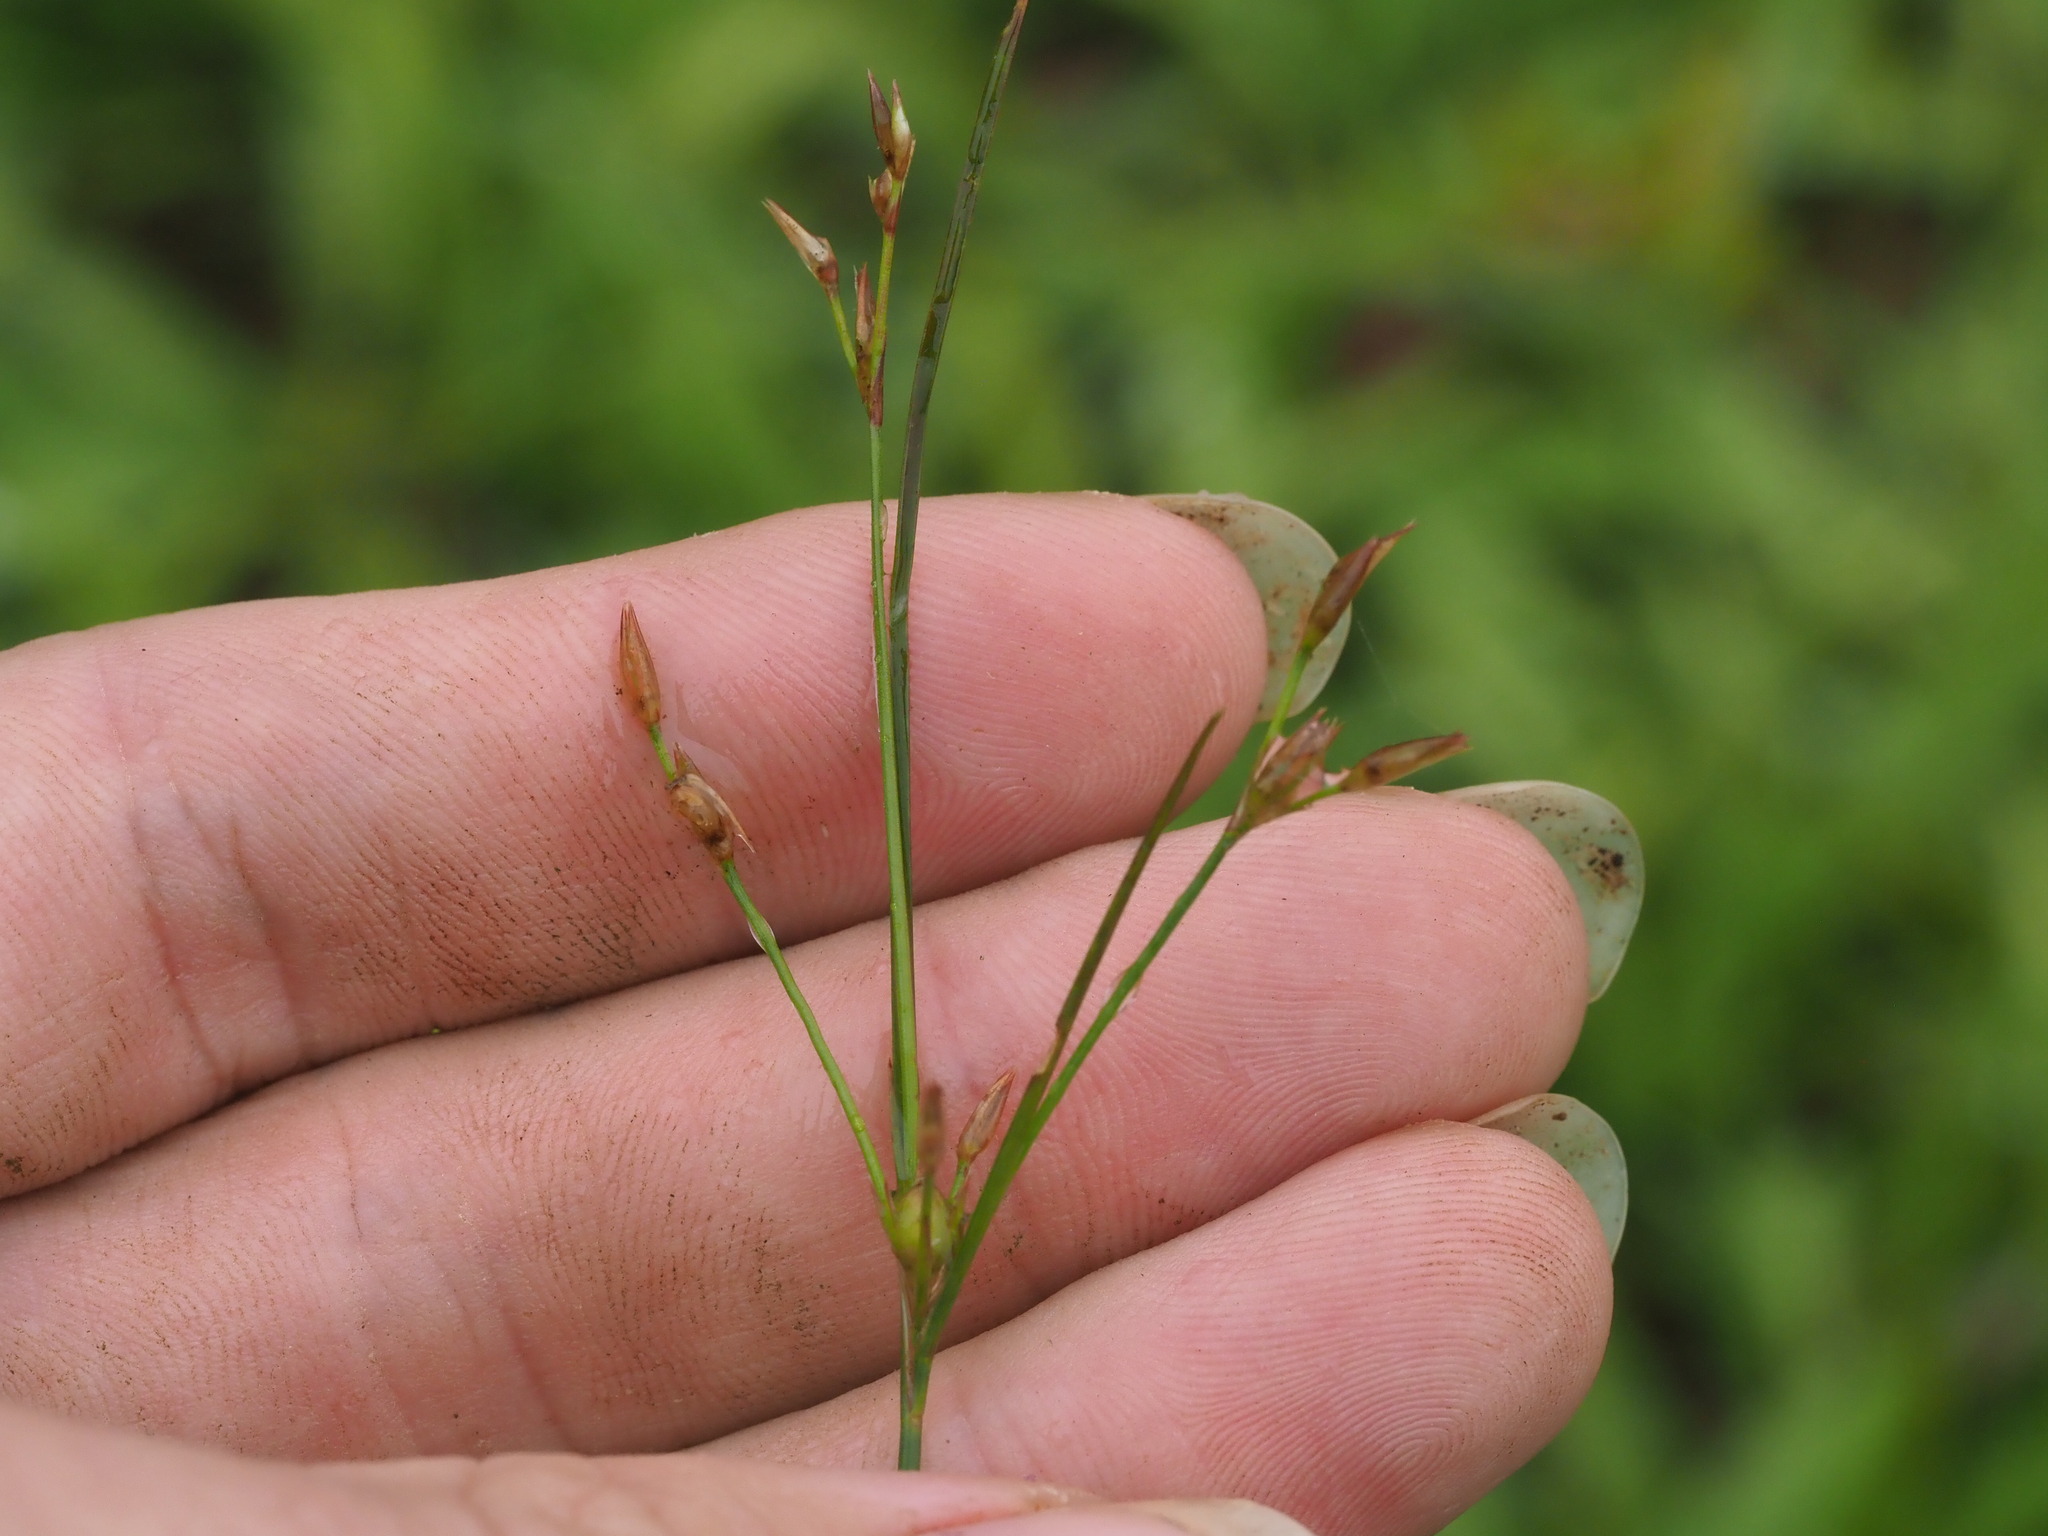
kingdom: Plantae
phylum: Tracheophyta
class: Liliopsida
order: Poales
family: Juncaceae
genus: Juncus
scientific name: Juncus tenuis
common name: Slender rush
